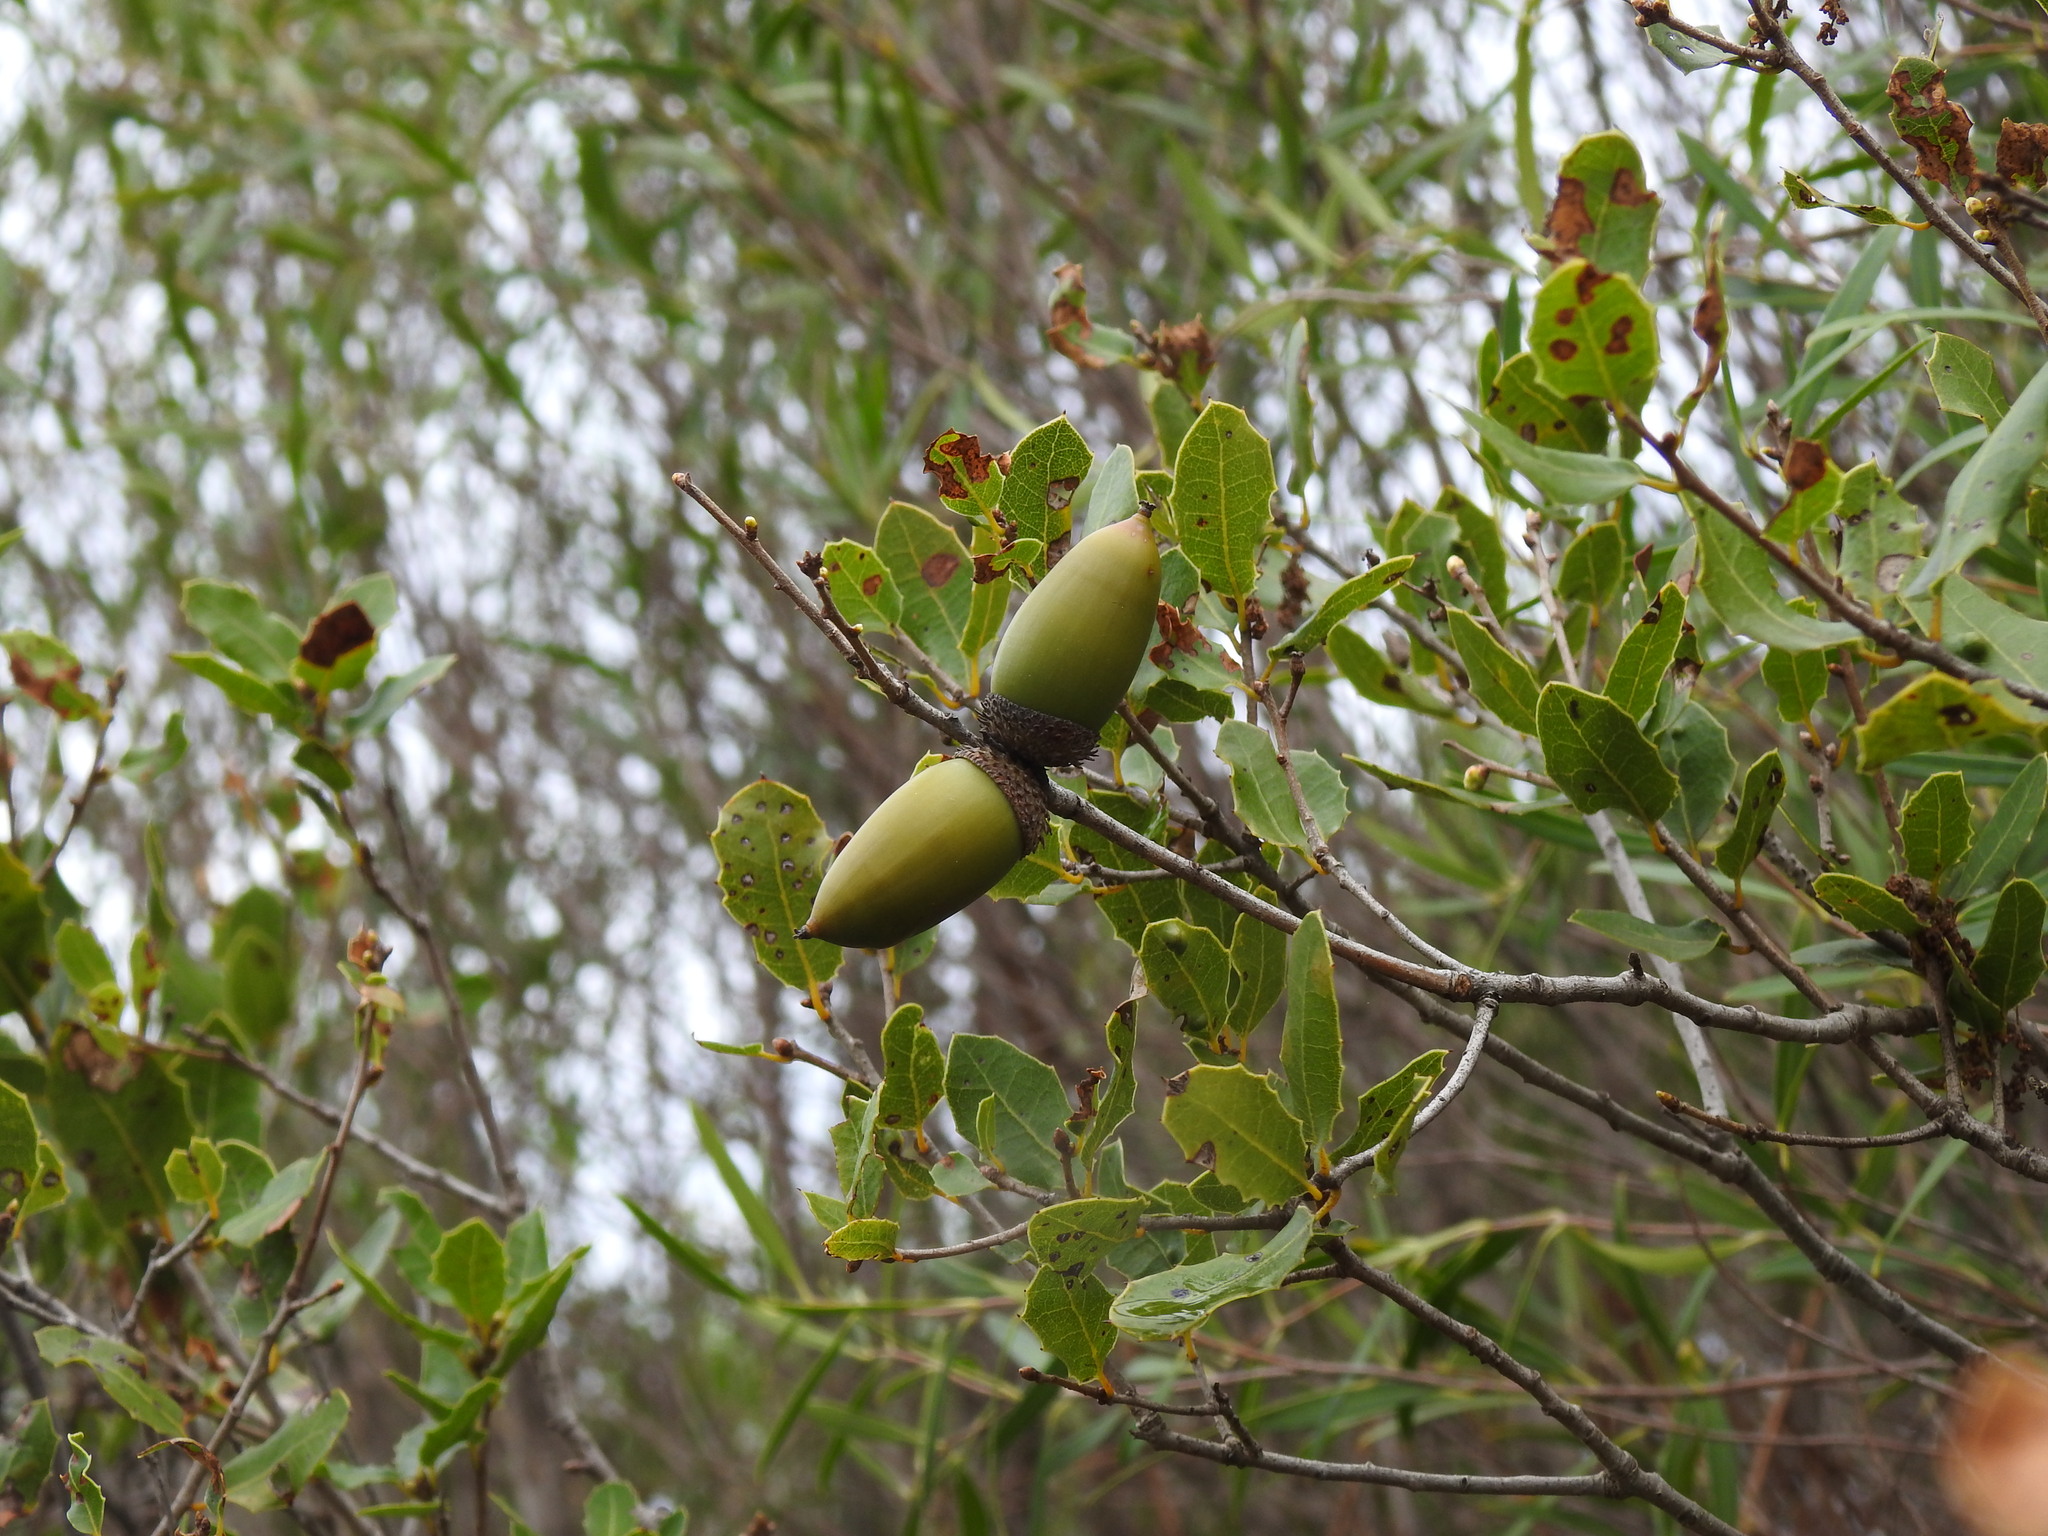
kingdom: Plantae
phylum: Tracheophyta
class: Magnoliopsida
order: Fagales
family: Fagaceae
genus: Quercus
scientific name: Quercus coccifera
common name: Kermes oak
